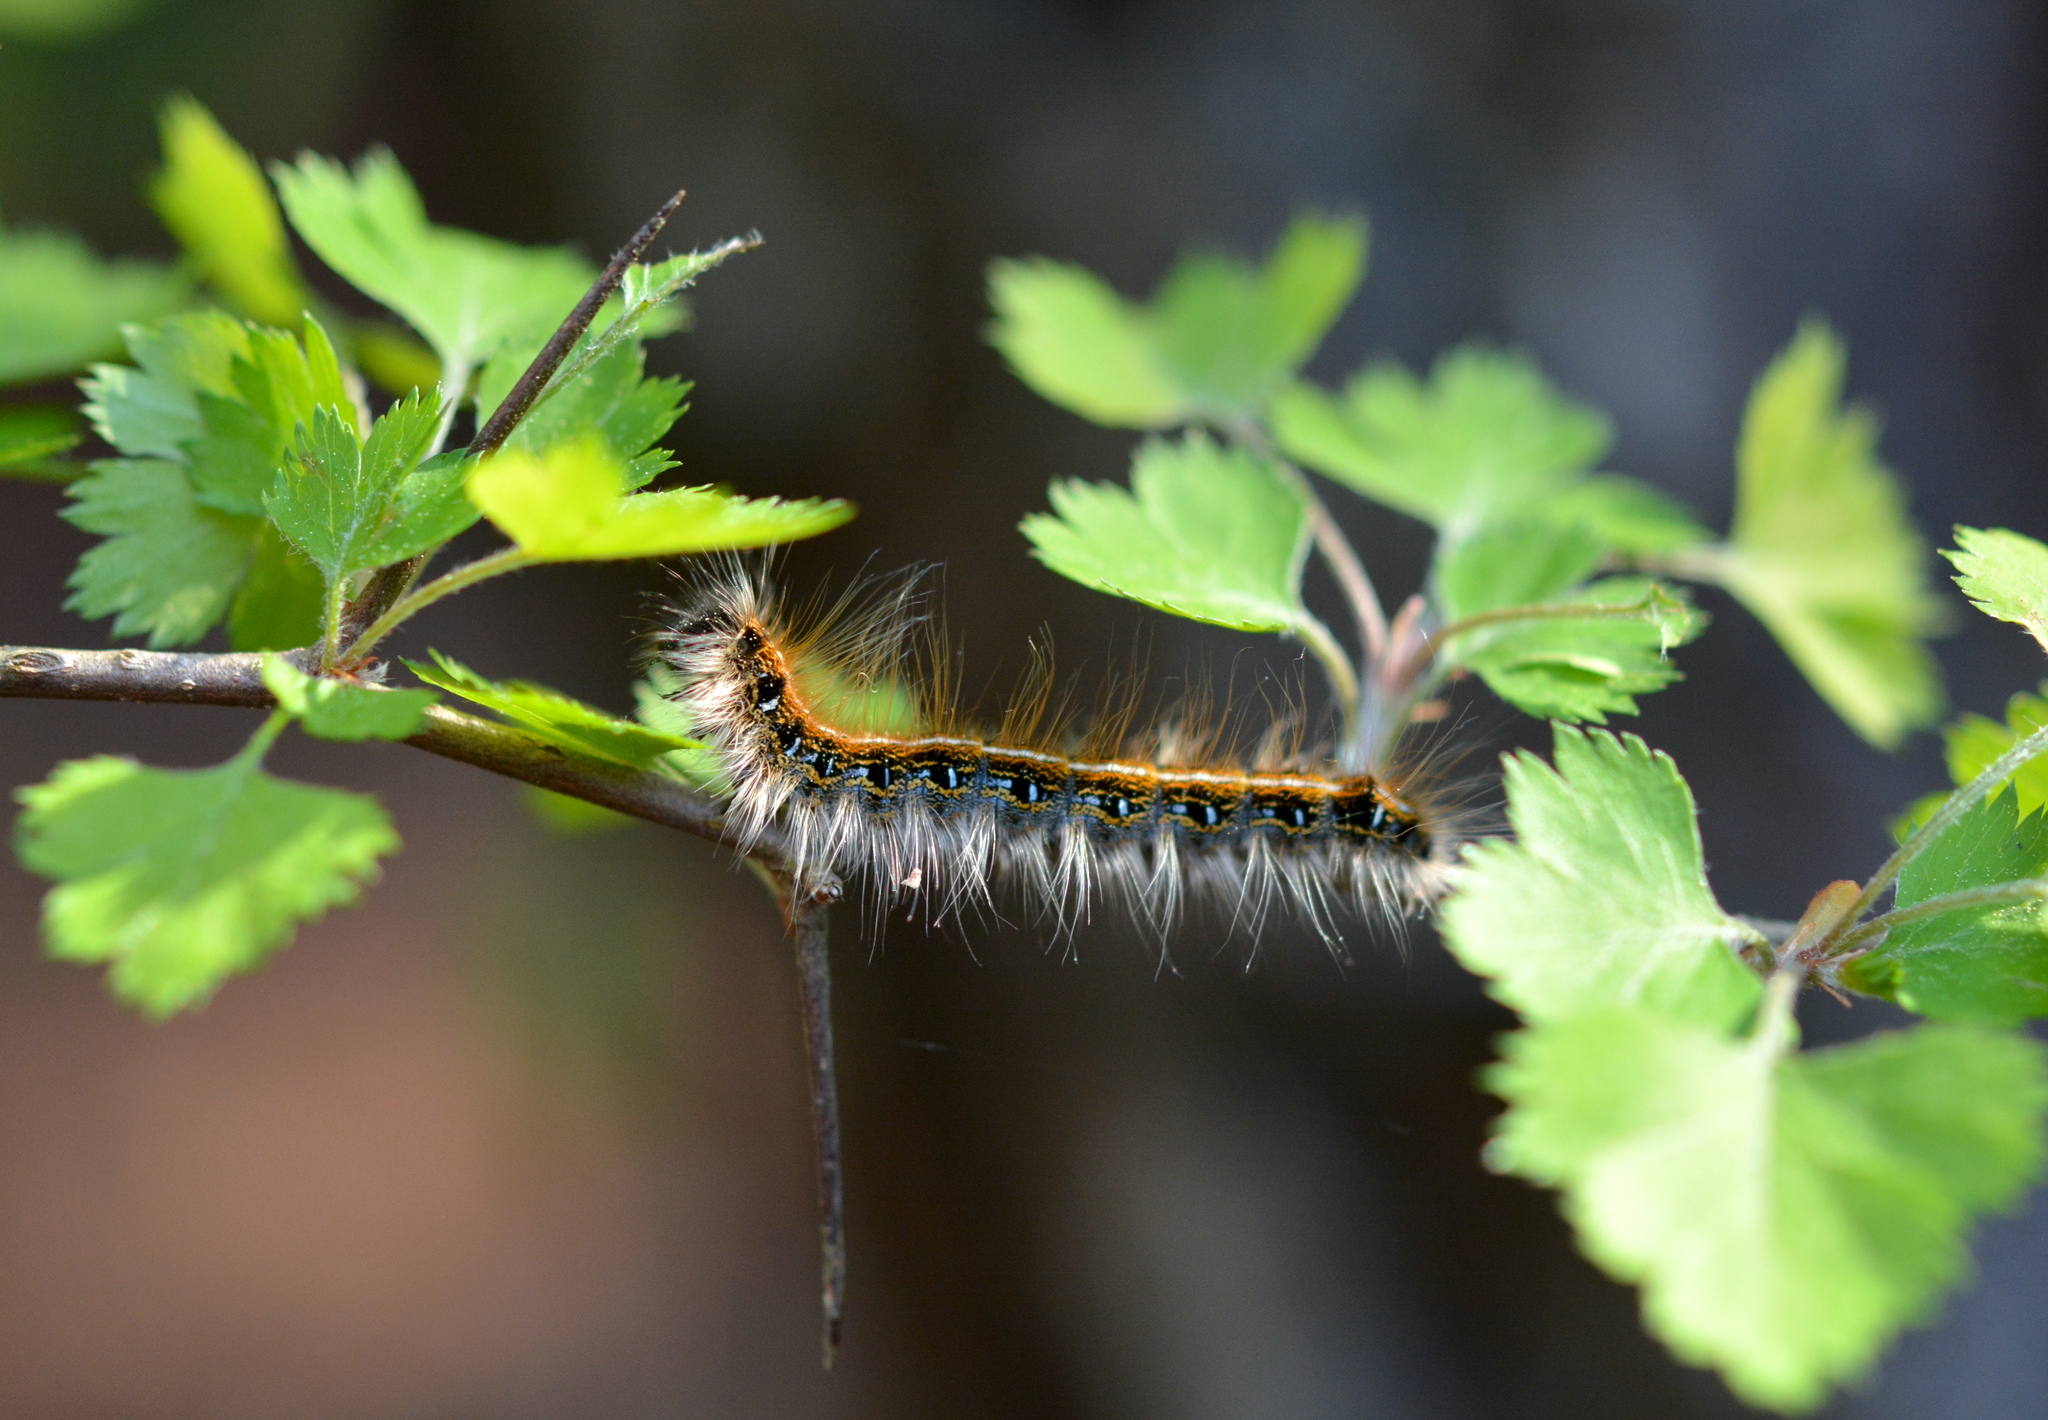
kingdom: Animalia
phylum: Arthropoda
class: Insecta
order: Lepidoptera
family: Lasiocampidae
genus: Malacosoma
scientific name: Malacosoma americana
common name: Eastern tent caterpillar moth
